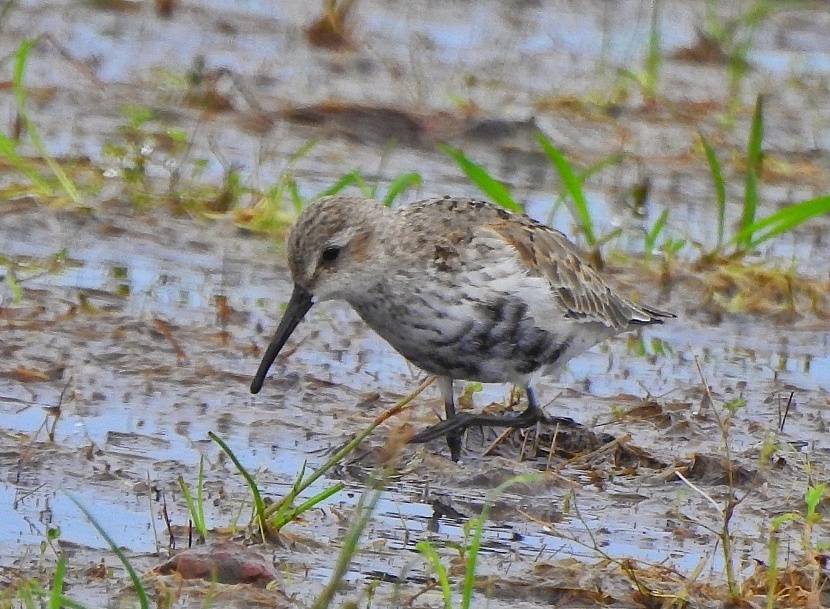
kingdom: Animalia
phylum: Chordata
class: Aves
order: Charadriiformes
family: Scolopacidae
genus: Calidris
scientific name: Calidris alpina
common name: Dunlin
